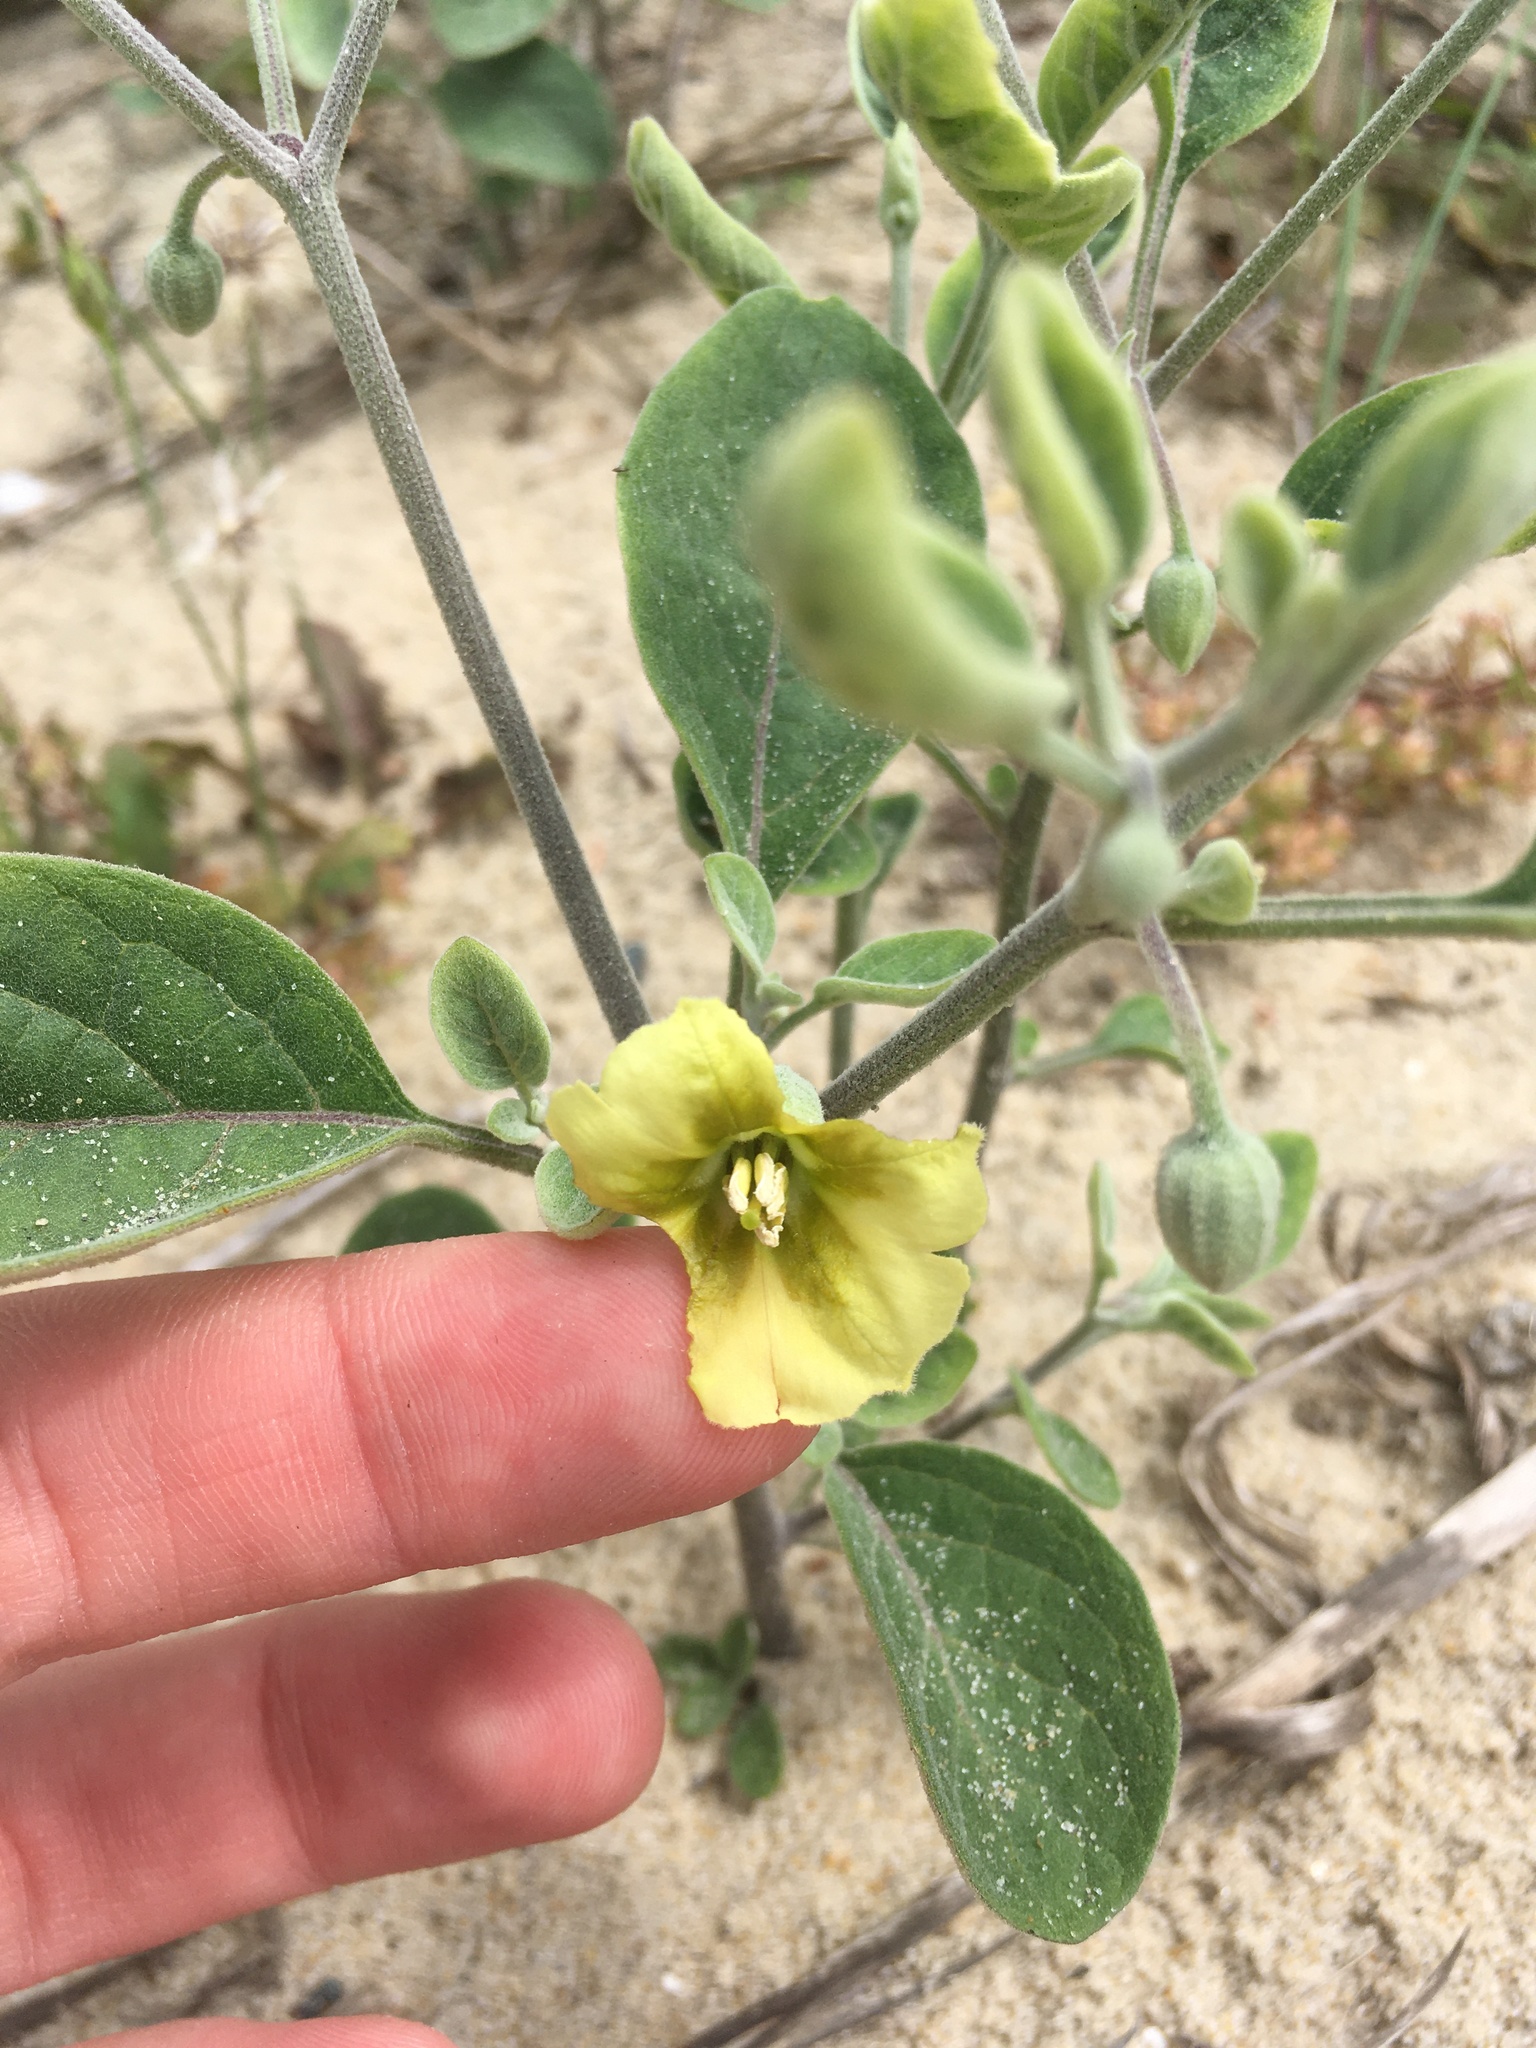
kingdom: Plantae
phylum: Tracheophyta
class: Magnoliopsida
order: Solanales
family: Solanaceae
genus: Physalis
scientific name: Physalis walteri
